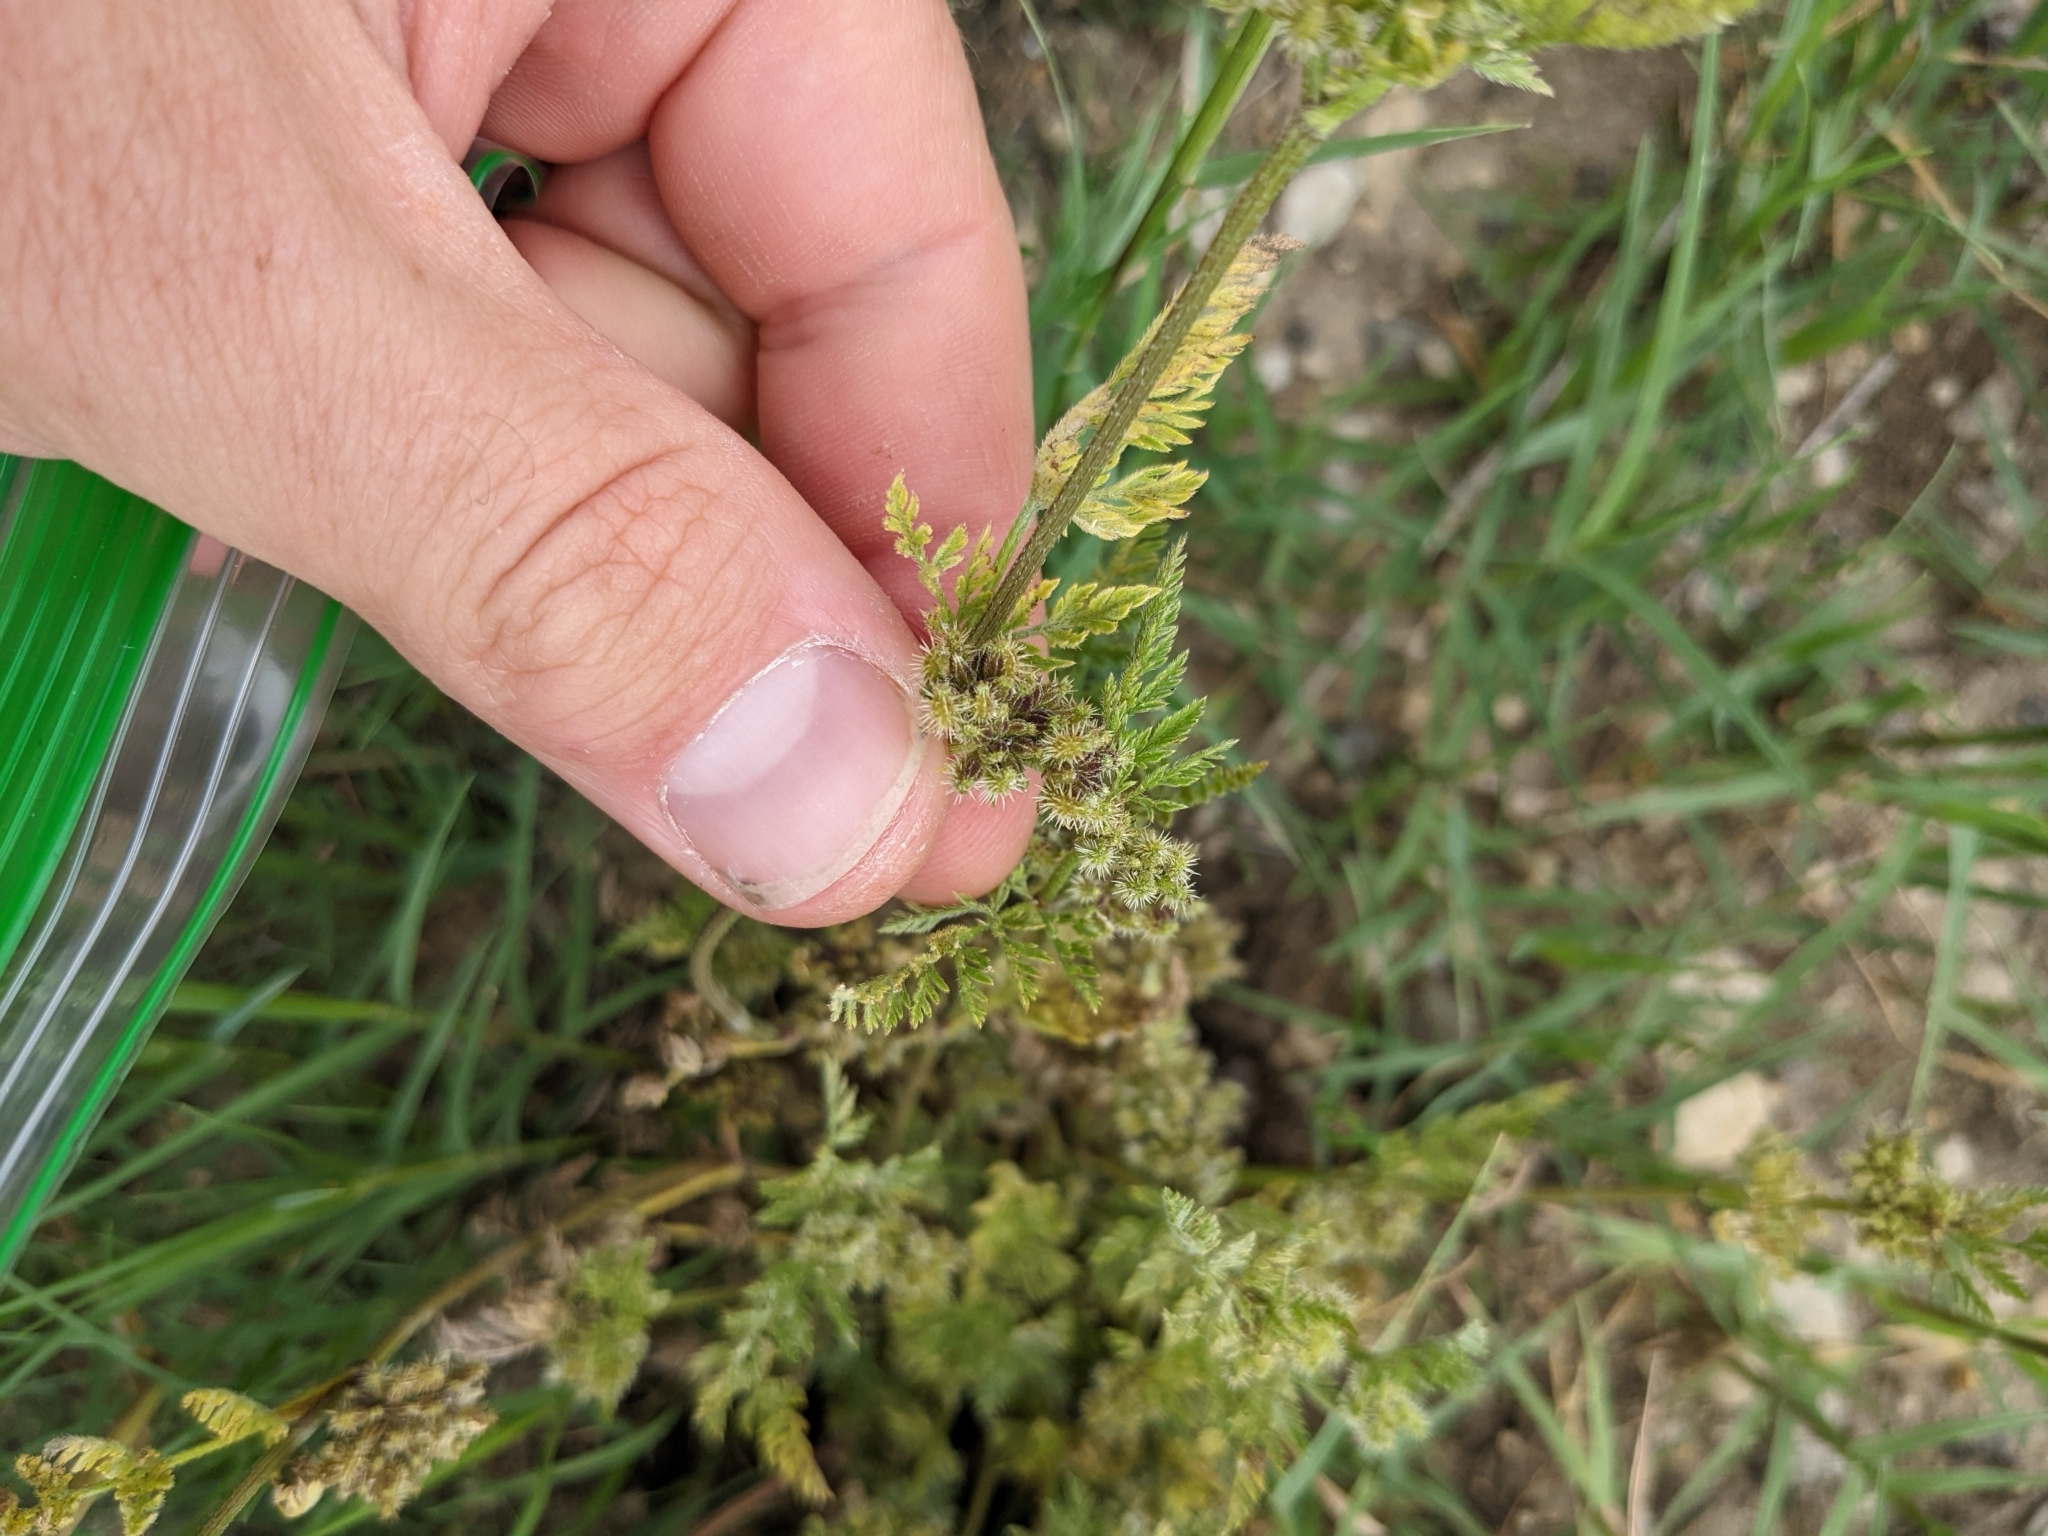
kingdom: Plantae
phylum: Tracheophyta
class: Magnoliopsida
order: Apiales
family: Apiaceae
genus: Torilis
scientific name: Torilis nodosa
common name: Knotted hedge-parsley
